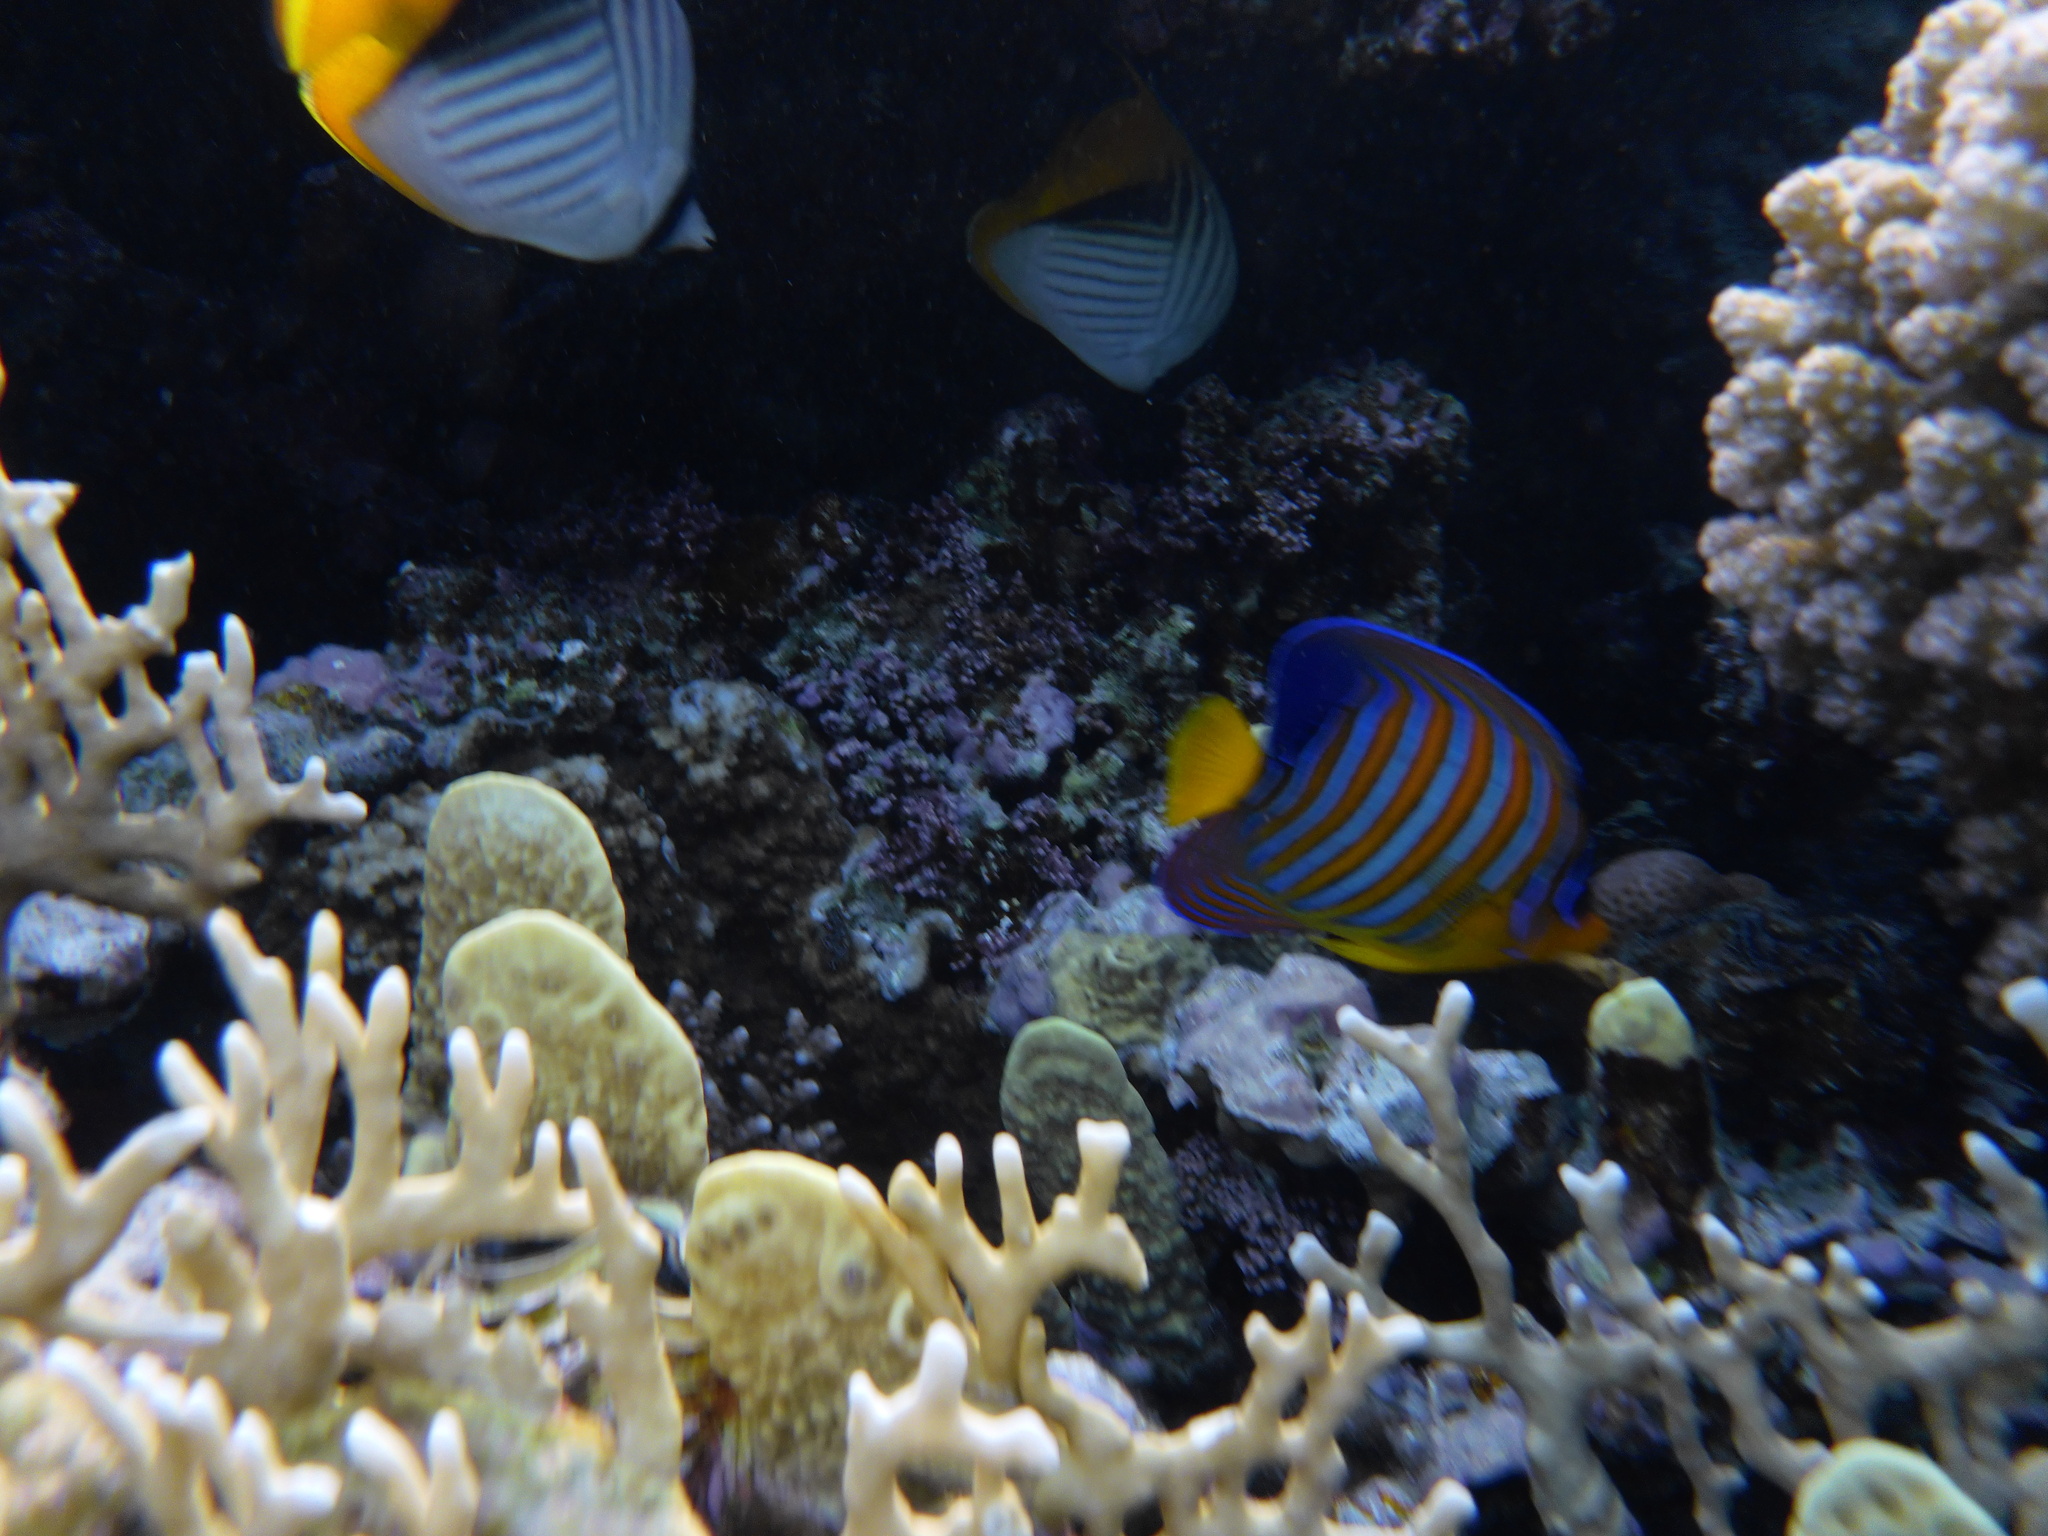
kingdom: Animalia
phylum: Chordata
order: Perciformes
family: Pomacanthidae
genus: Pygoplites
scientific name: Pygoplites diacanthus
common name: Regal angelfish
